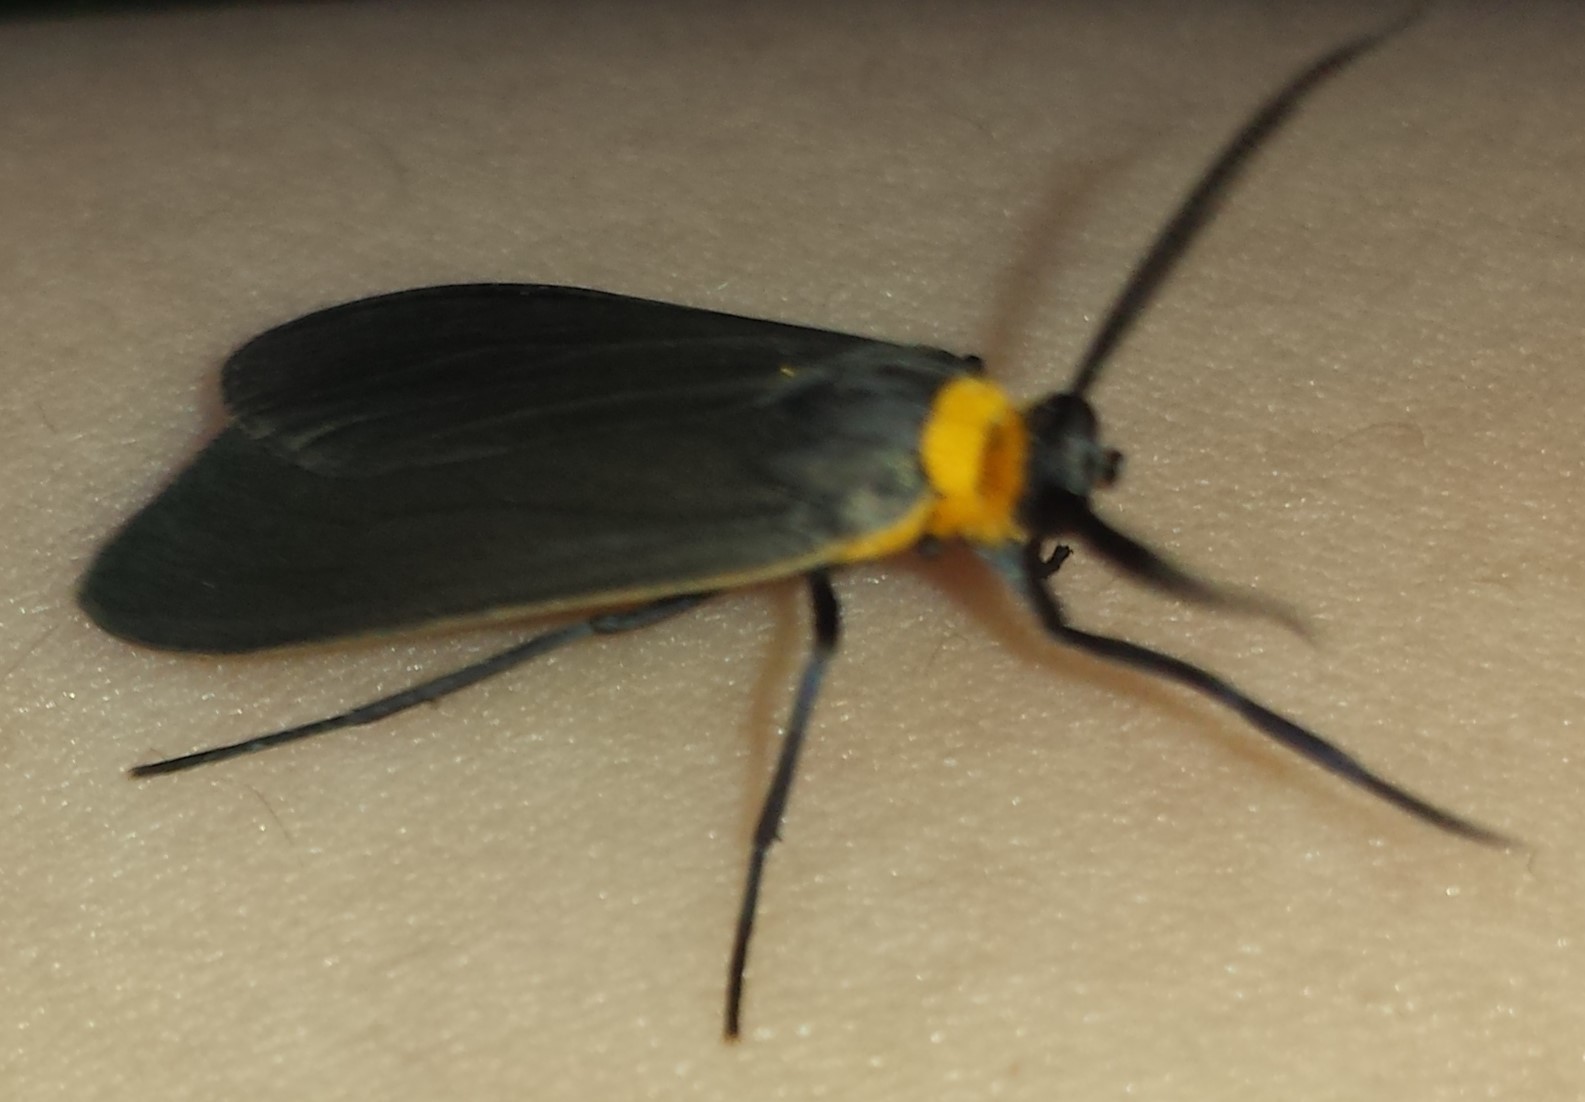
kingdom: Animalia
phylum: Arthropoda
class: Insecta
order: Lepidoptera
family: Erebidae
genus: Cisseps
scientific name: Cisseps fulvicollis
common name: Yellow-collared scape moth
